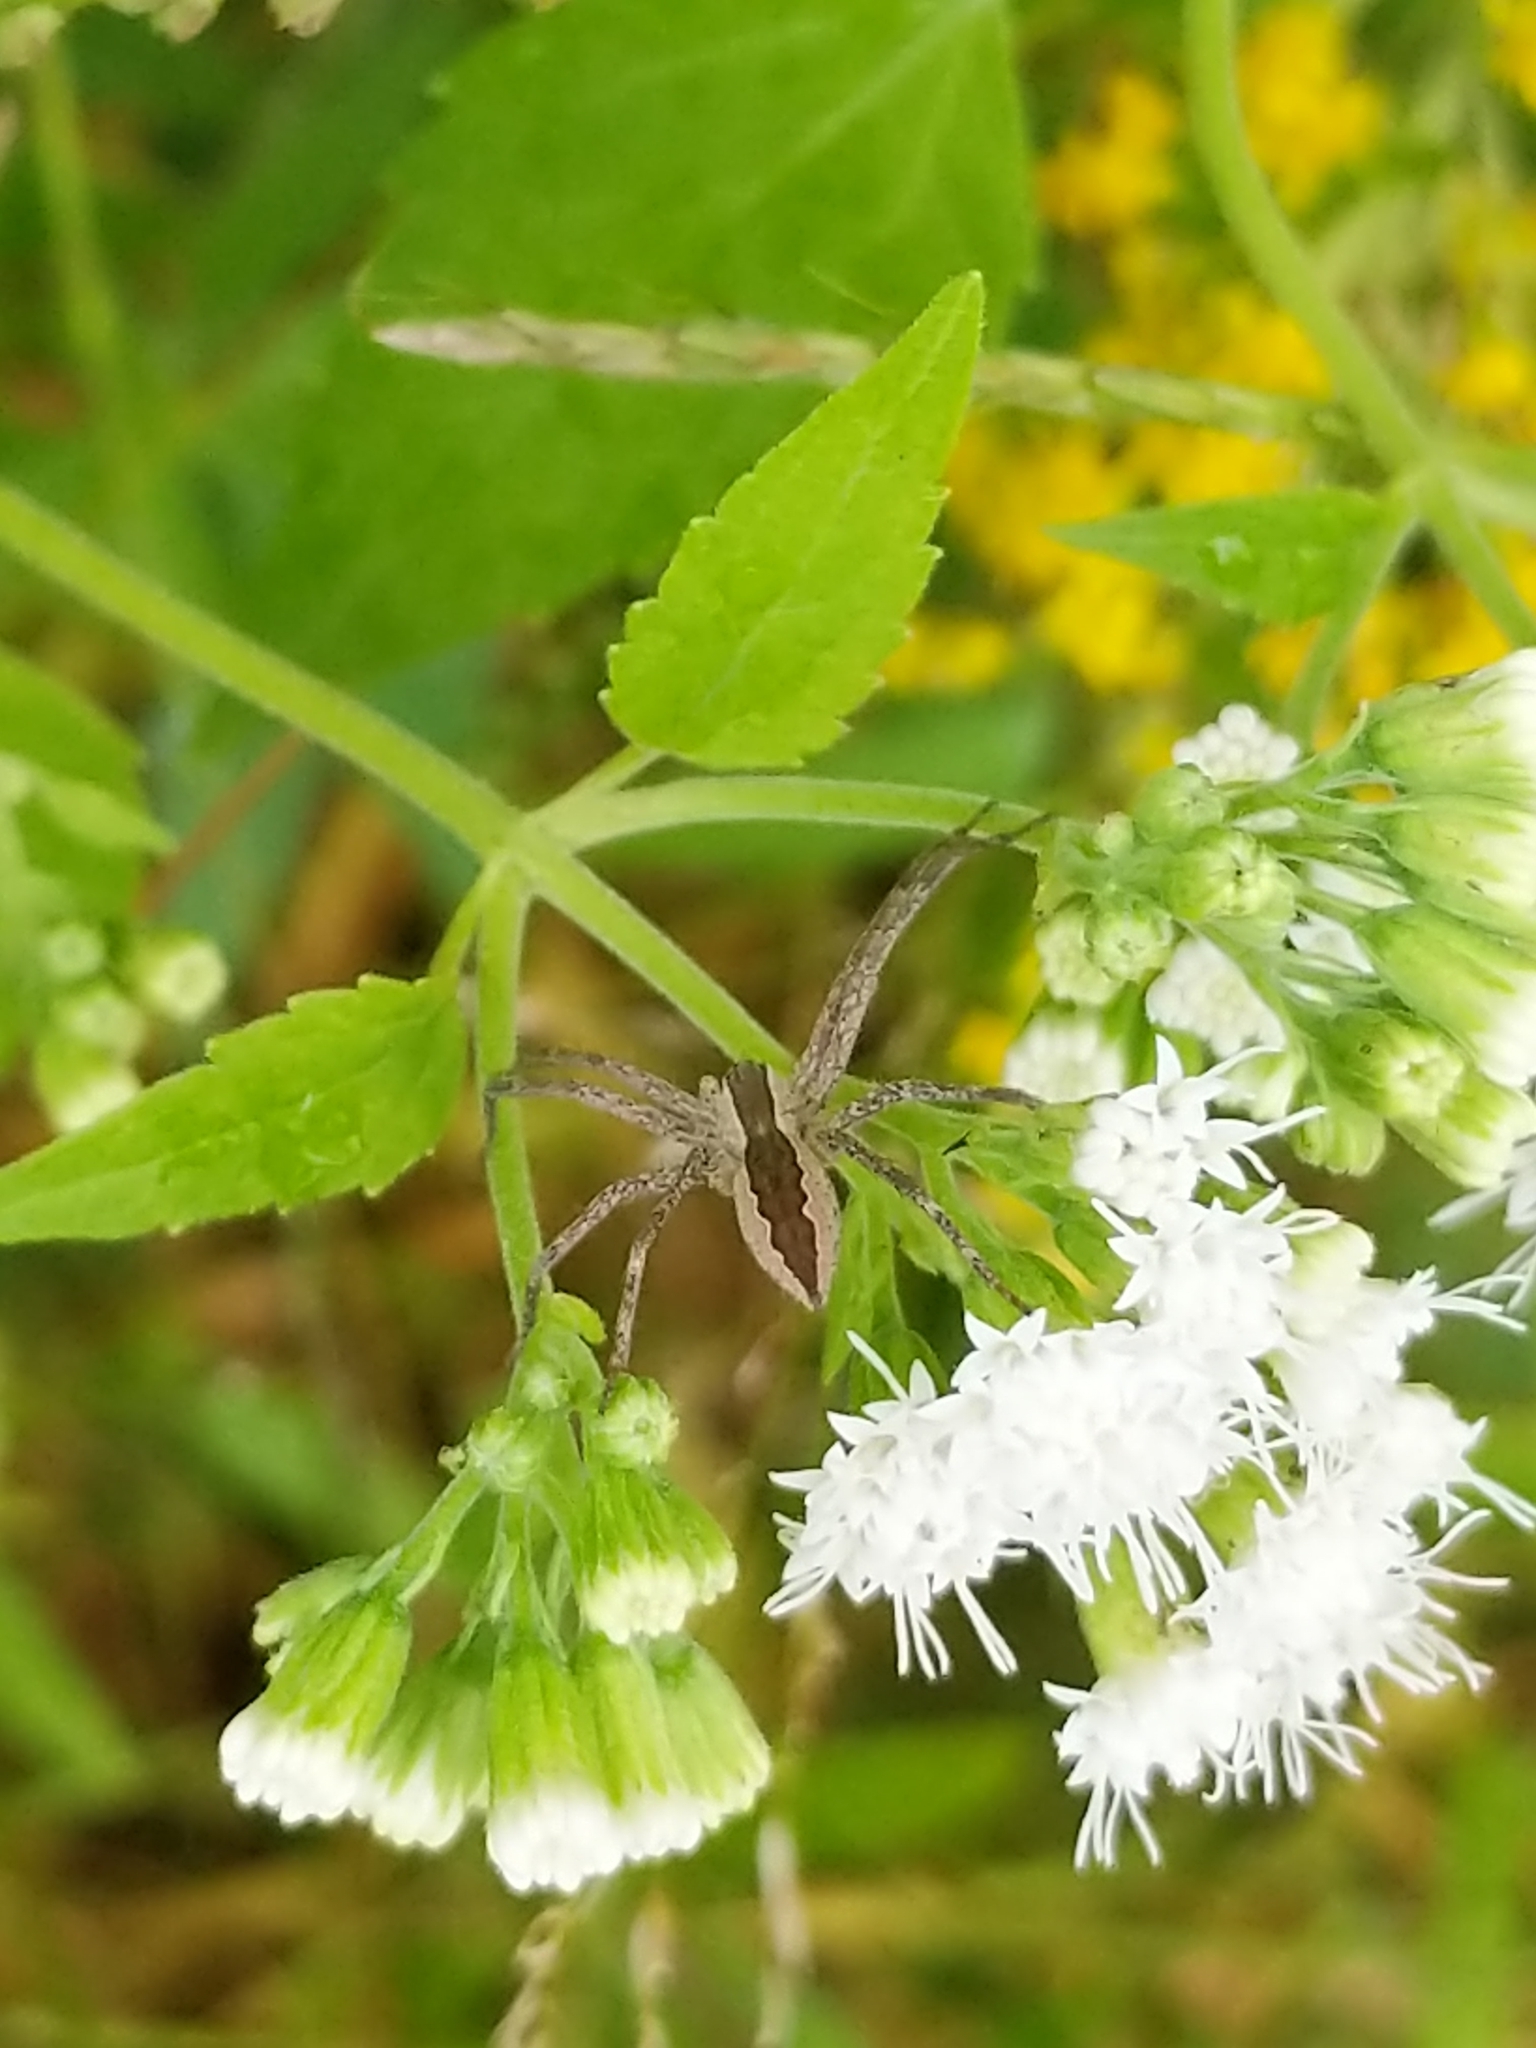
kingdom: Animalia
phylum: Arthropoda
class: Arachnida
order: Araneae
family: Pisauridae
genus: Pisaurina
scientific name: Pisaurina mira
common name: American nursery web spider
